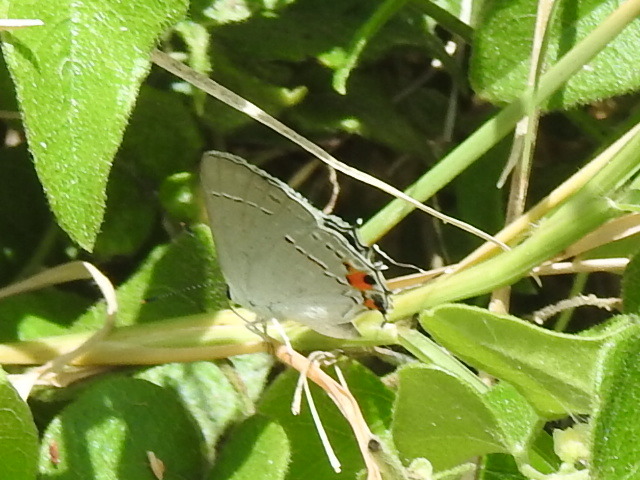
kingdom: Animalia
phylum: Arthropoda
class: Insecta
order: Lepidoptera
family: Lycaenidae
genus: Strymon
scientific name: Strymon melinus
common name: Gray hairstreak
